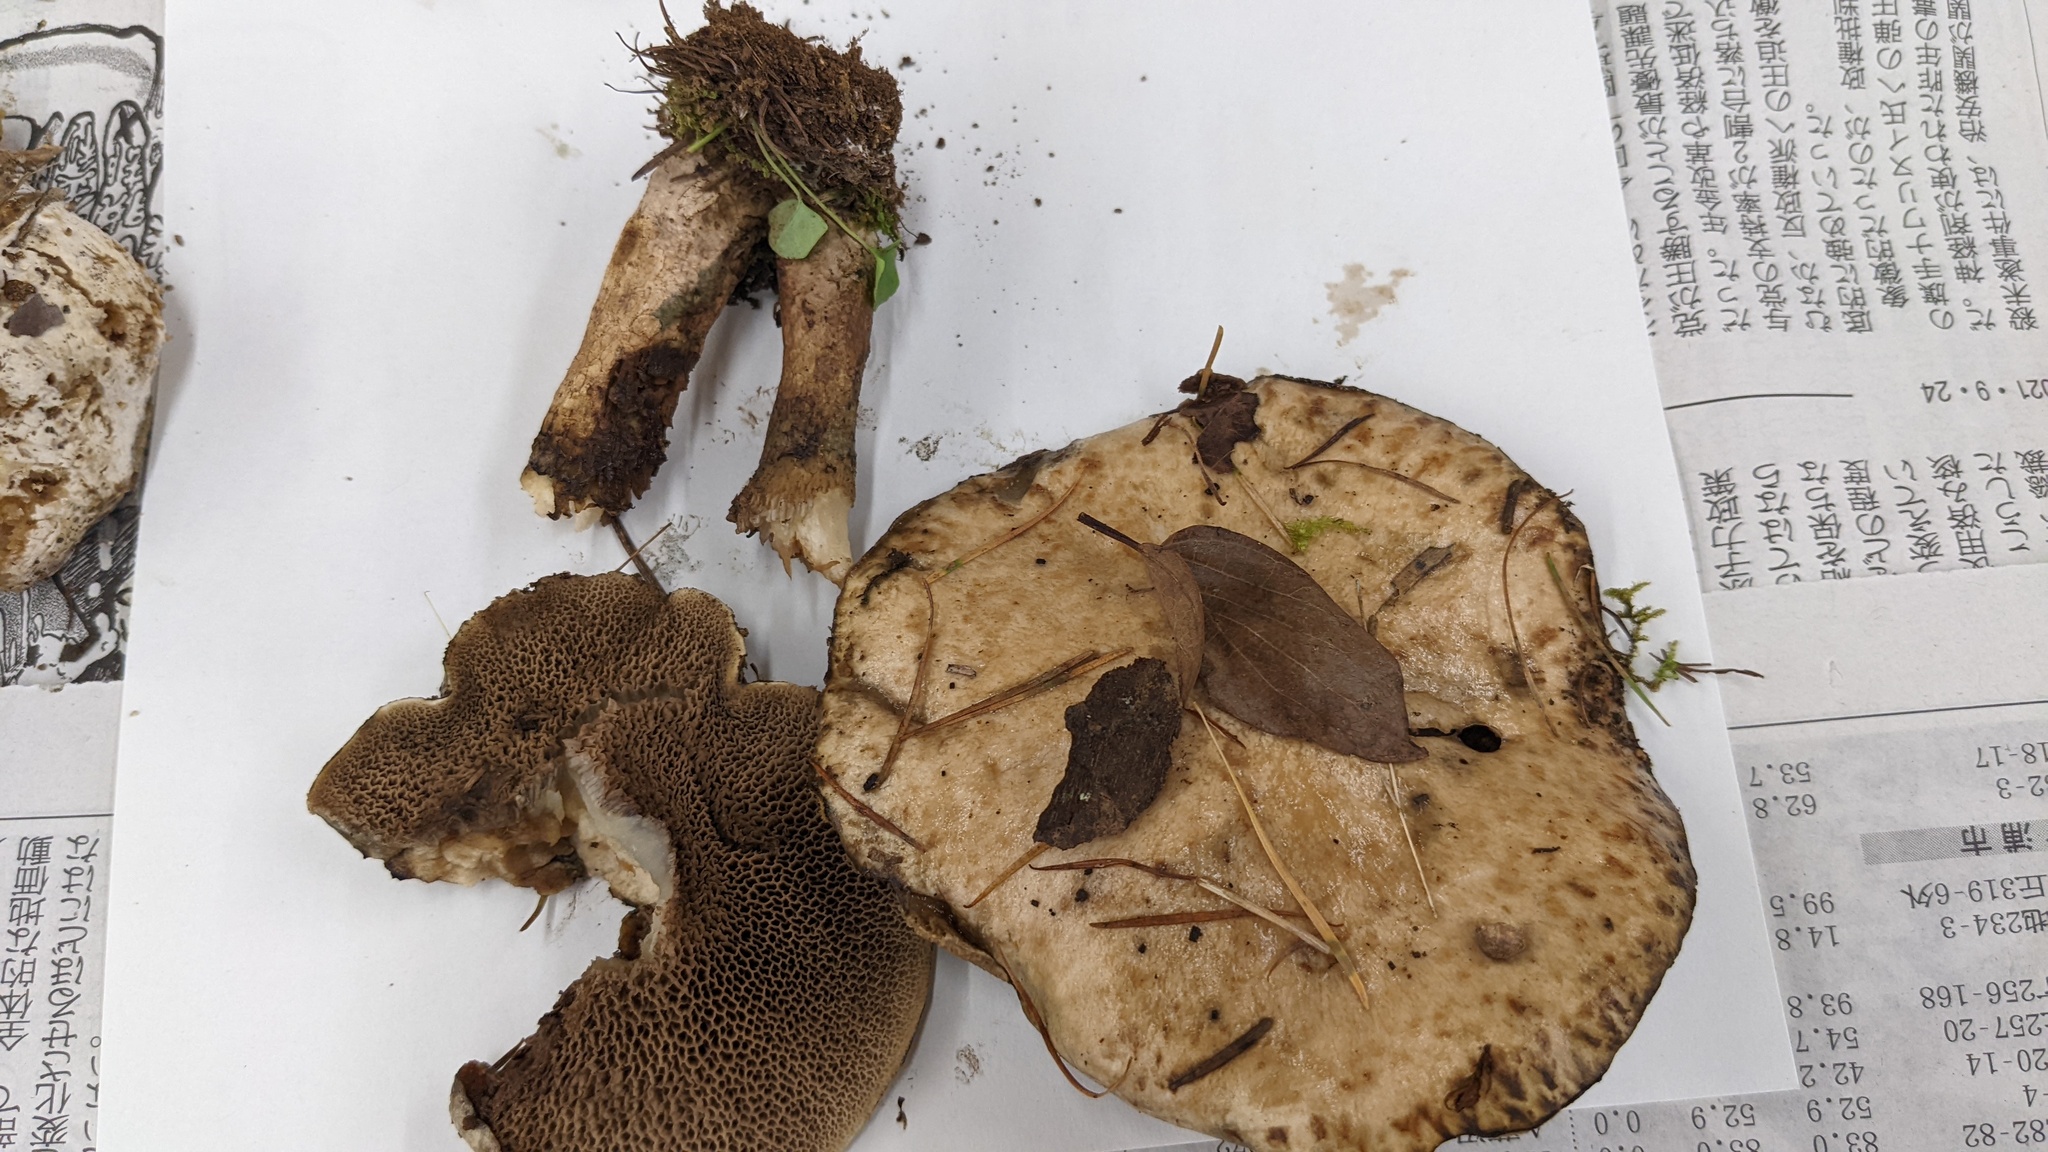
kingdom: Fungi
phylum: Basidiomycota
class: Agaricomycetes
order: Boletales
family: Suillaceae
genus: Suillus
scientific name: Suillus viscidus
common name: Sticky bolete
